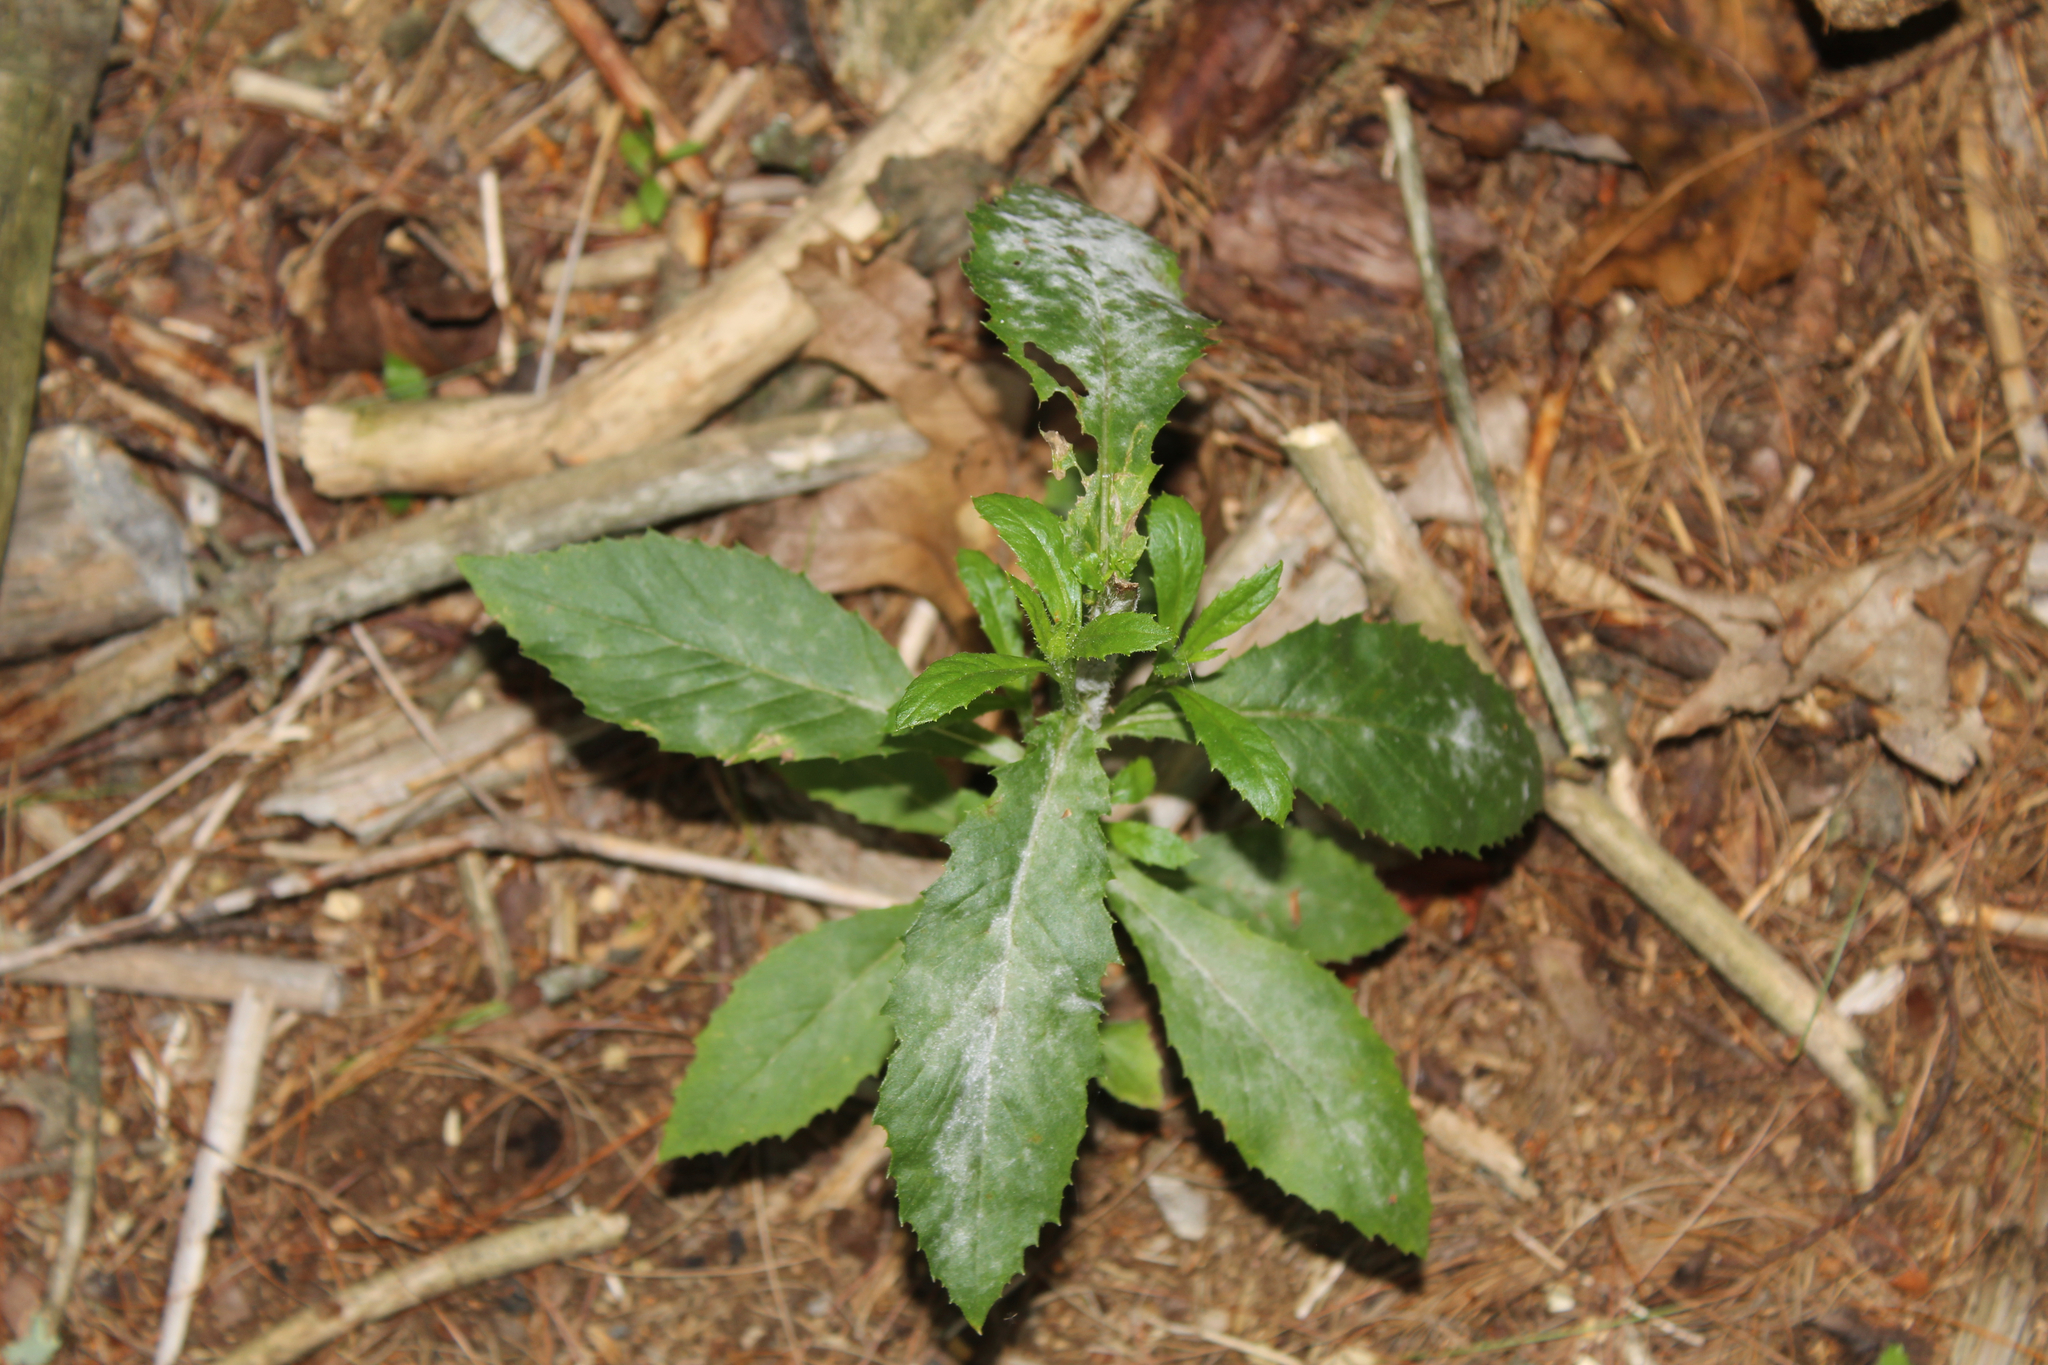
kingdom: Plantae
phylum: Tracheophyta
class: Magnoliopsida
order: Asterales
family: Asteraceae
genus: Erechtites
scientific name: Erechtites hieraciifolius
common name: American burnweed
